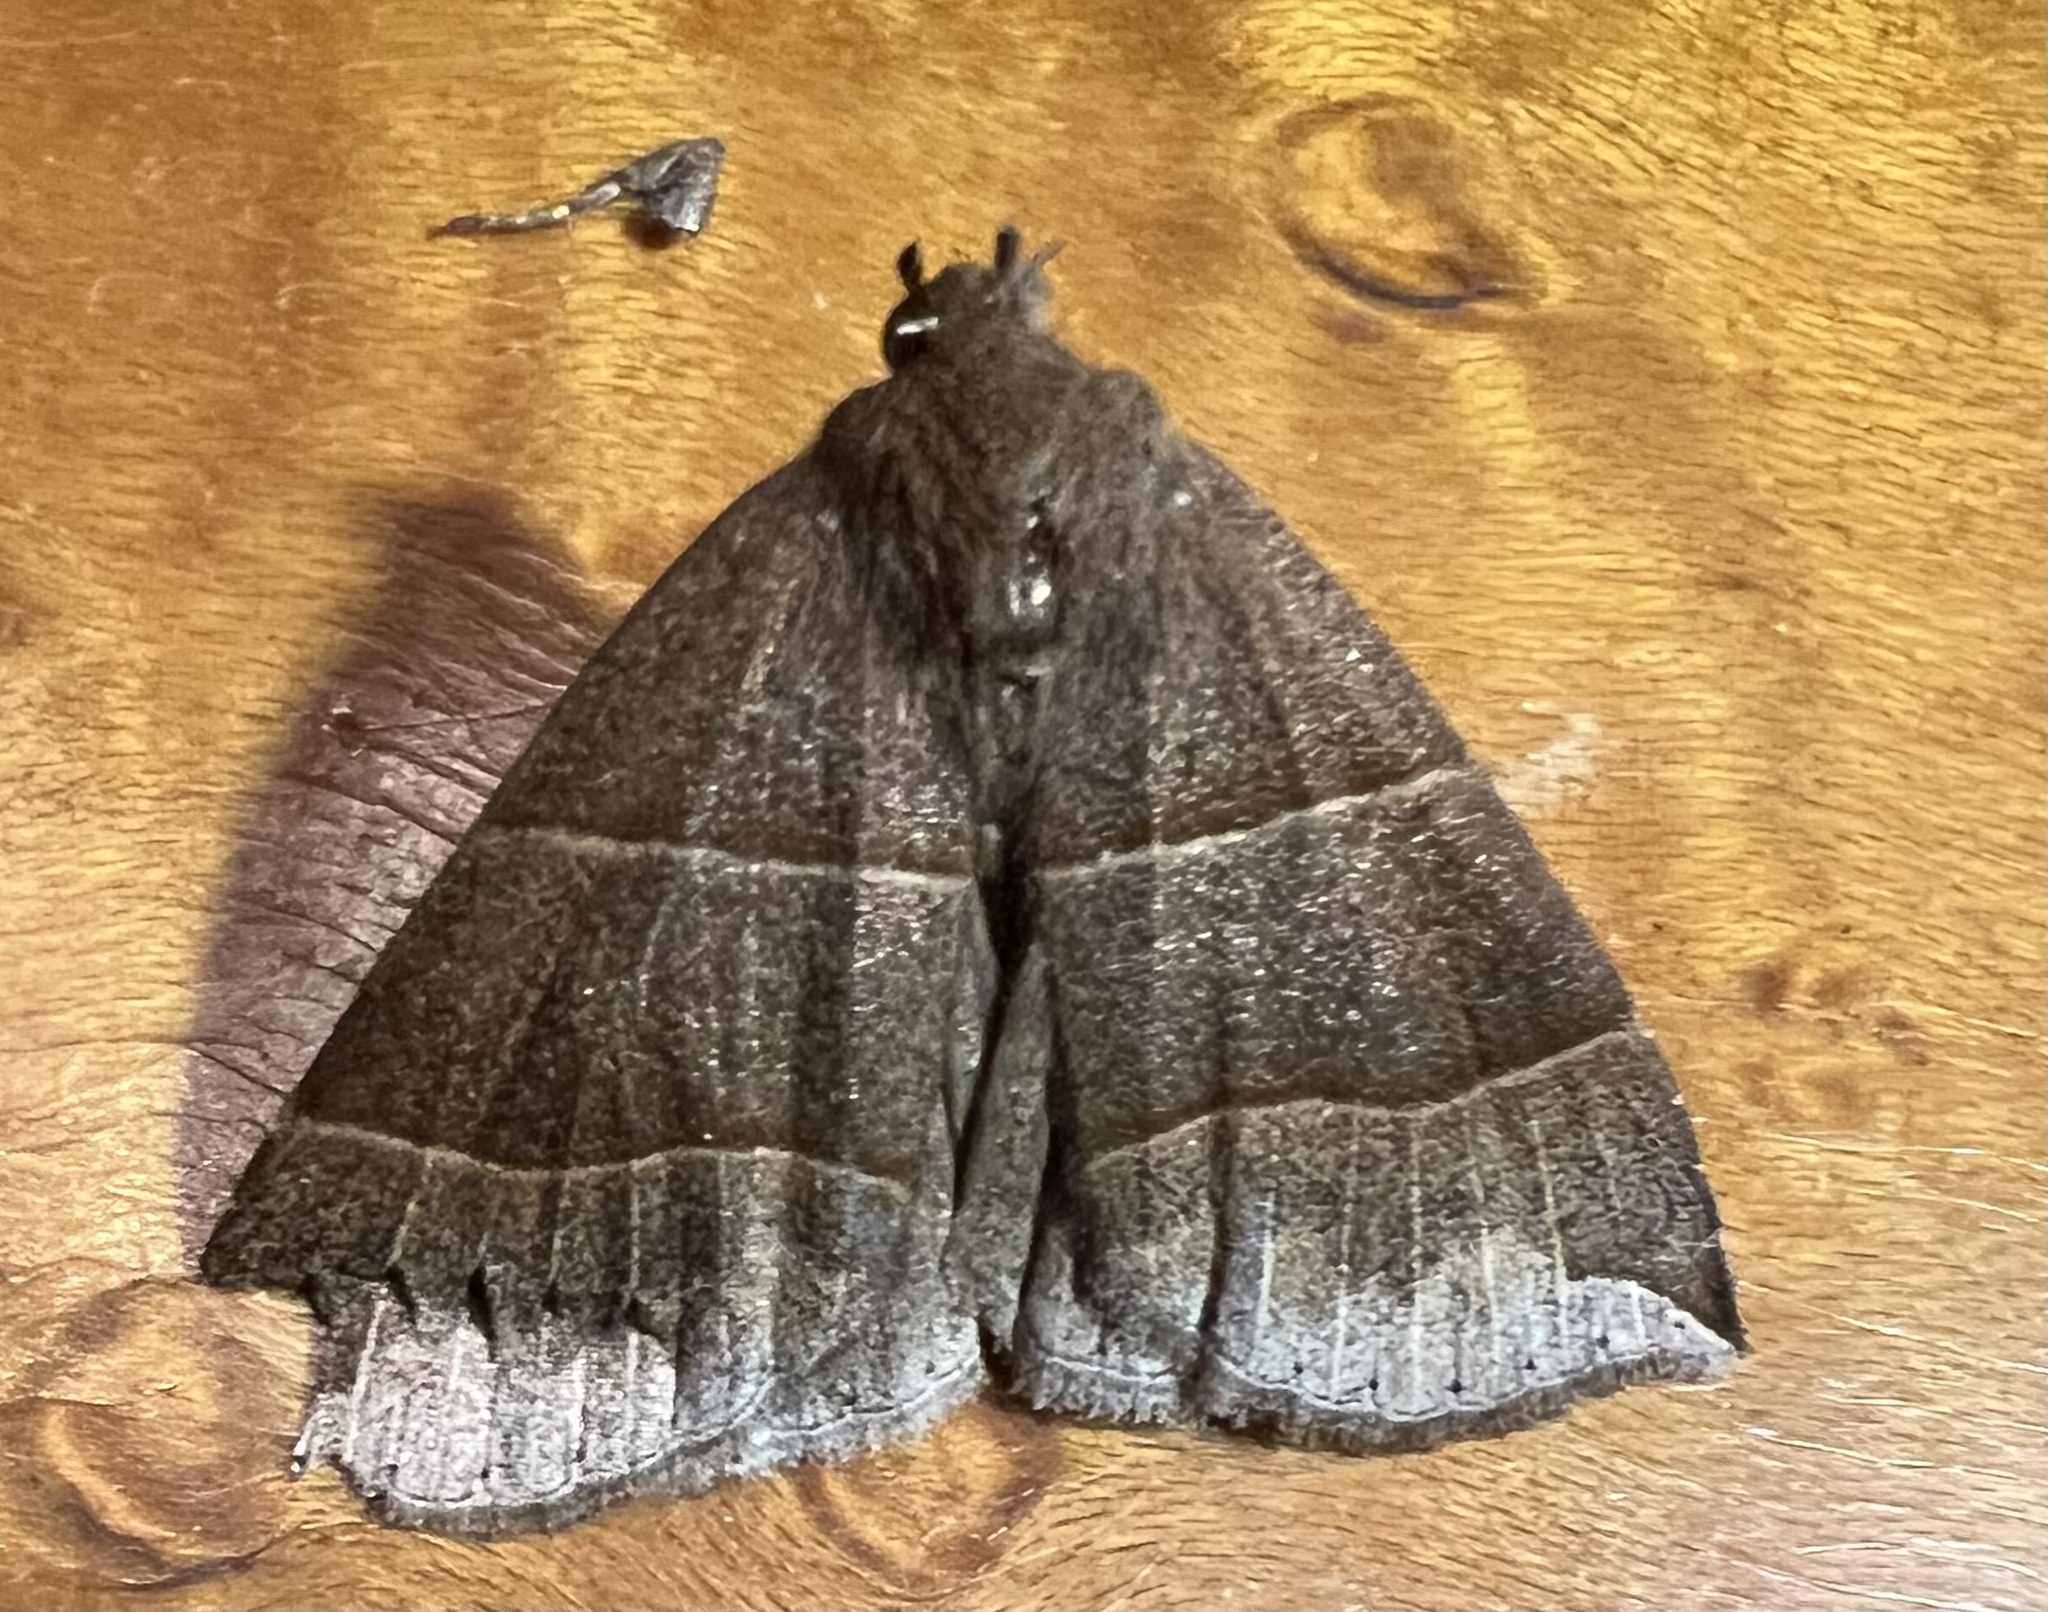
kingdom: Animalia
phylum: Arthropoda
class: Insecta
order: Lepidoptera
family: Erebidae
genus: Parallelia
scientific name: Parallelia bistriaris
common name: Maple looper moth
